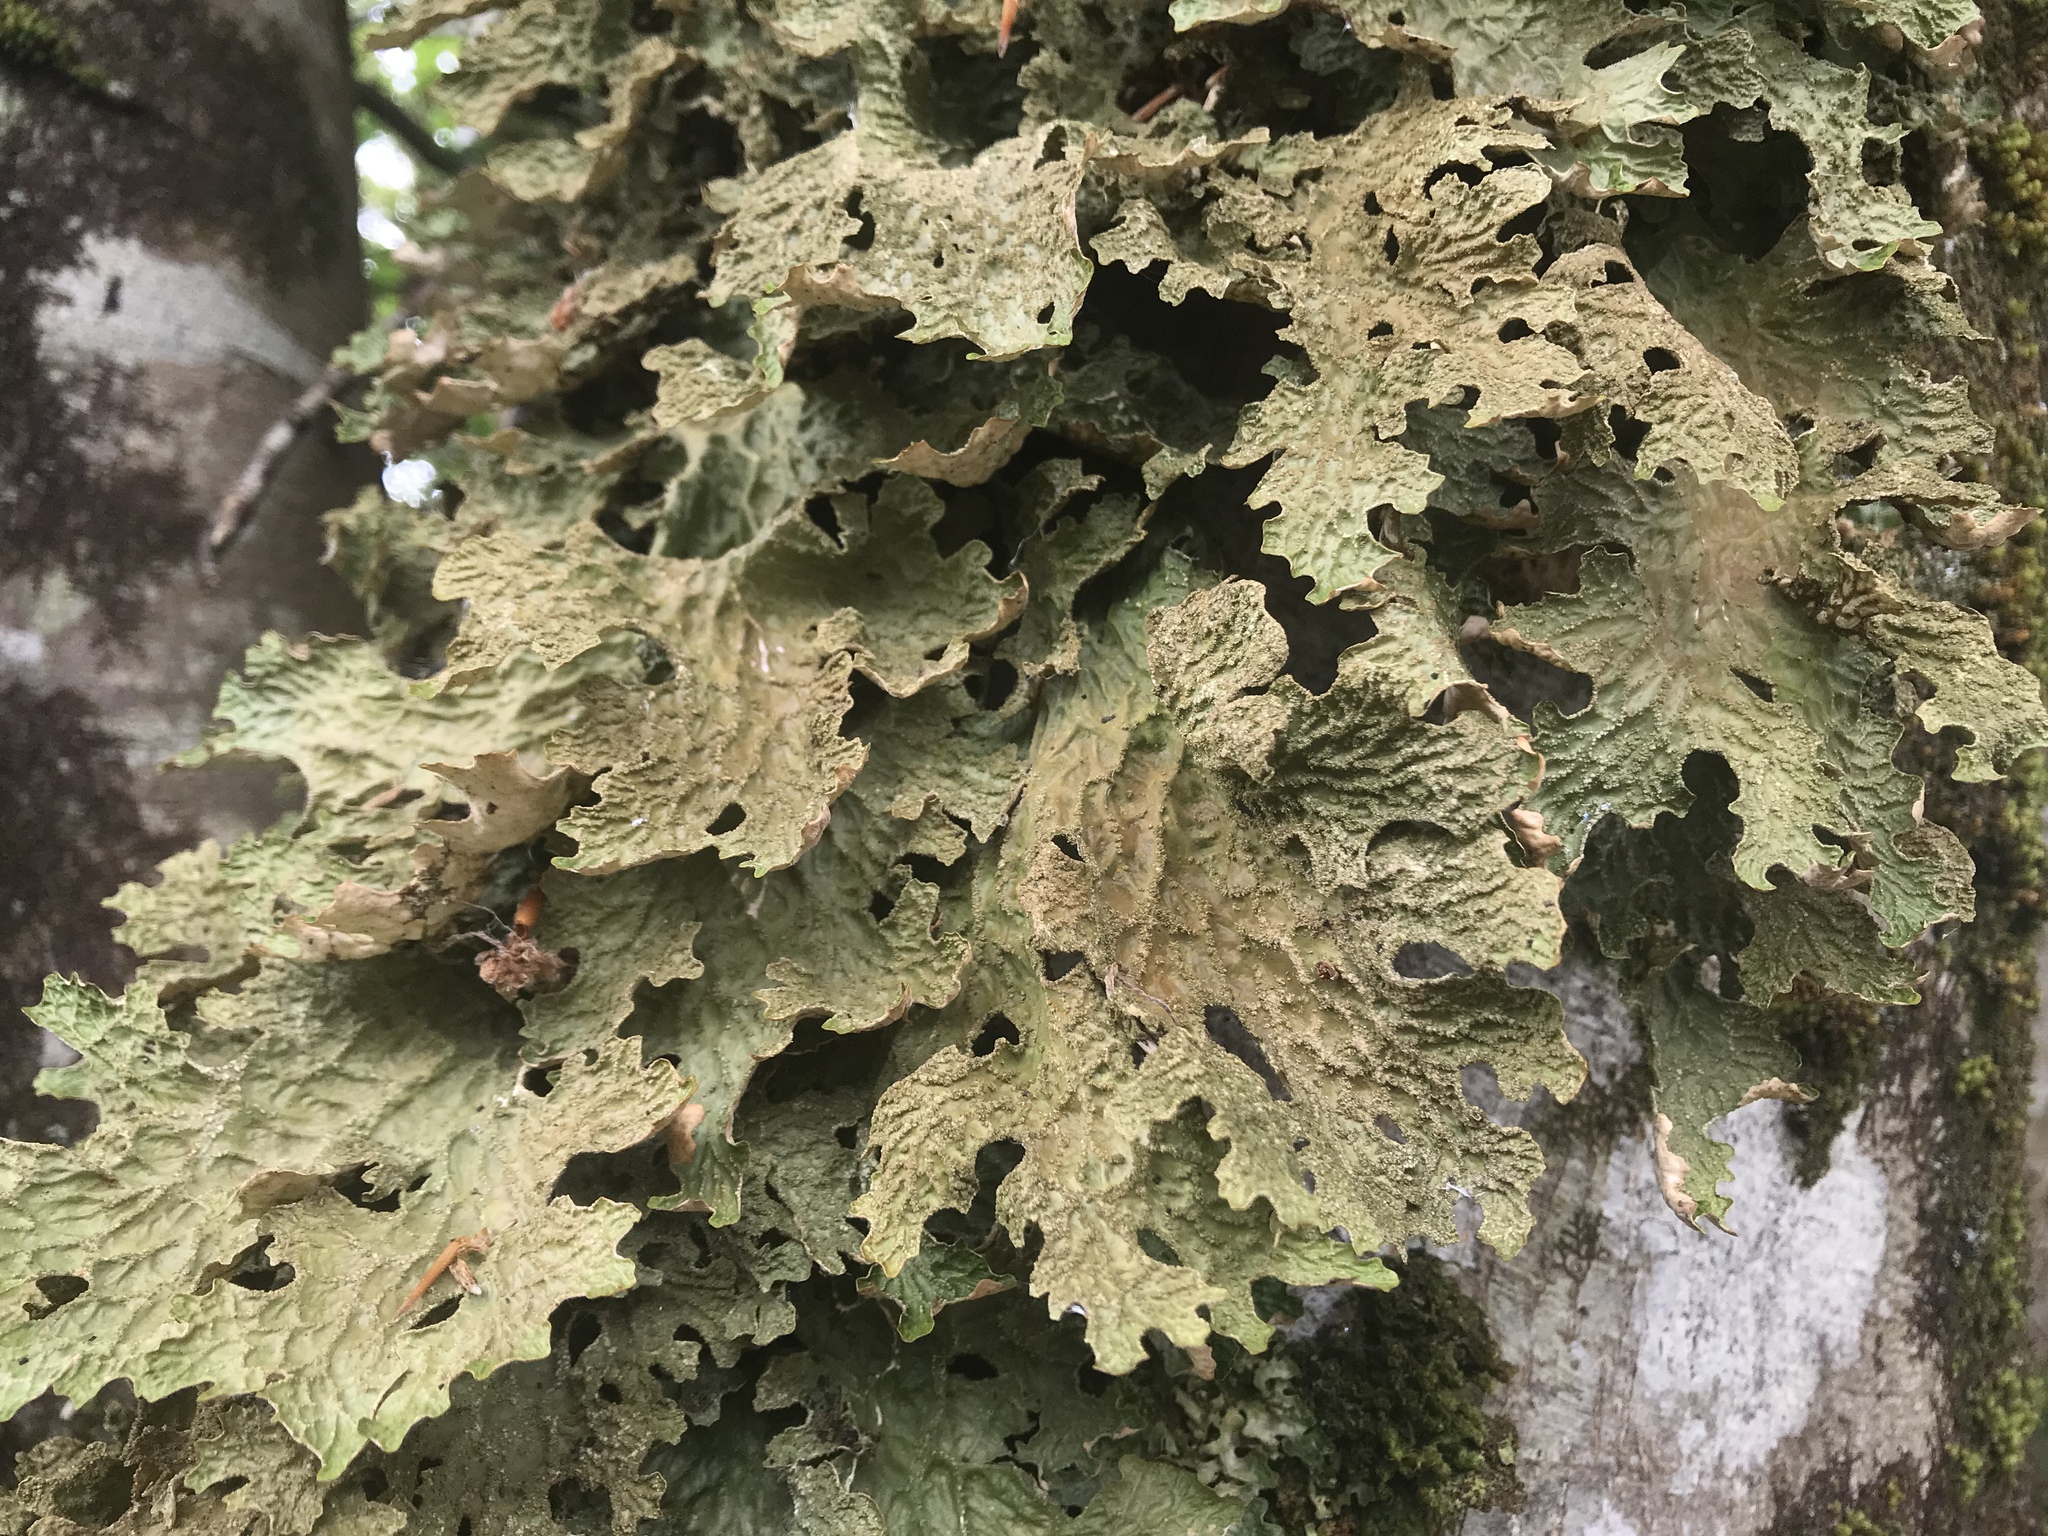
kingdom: Fungi
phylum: Ascomycota
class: Lecanoromycetes
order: Peltigerales
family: Lobariaceae
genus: Lobaria
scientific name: Lobaria pulmonaria
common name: Lungwort
